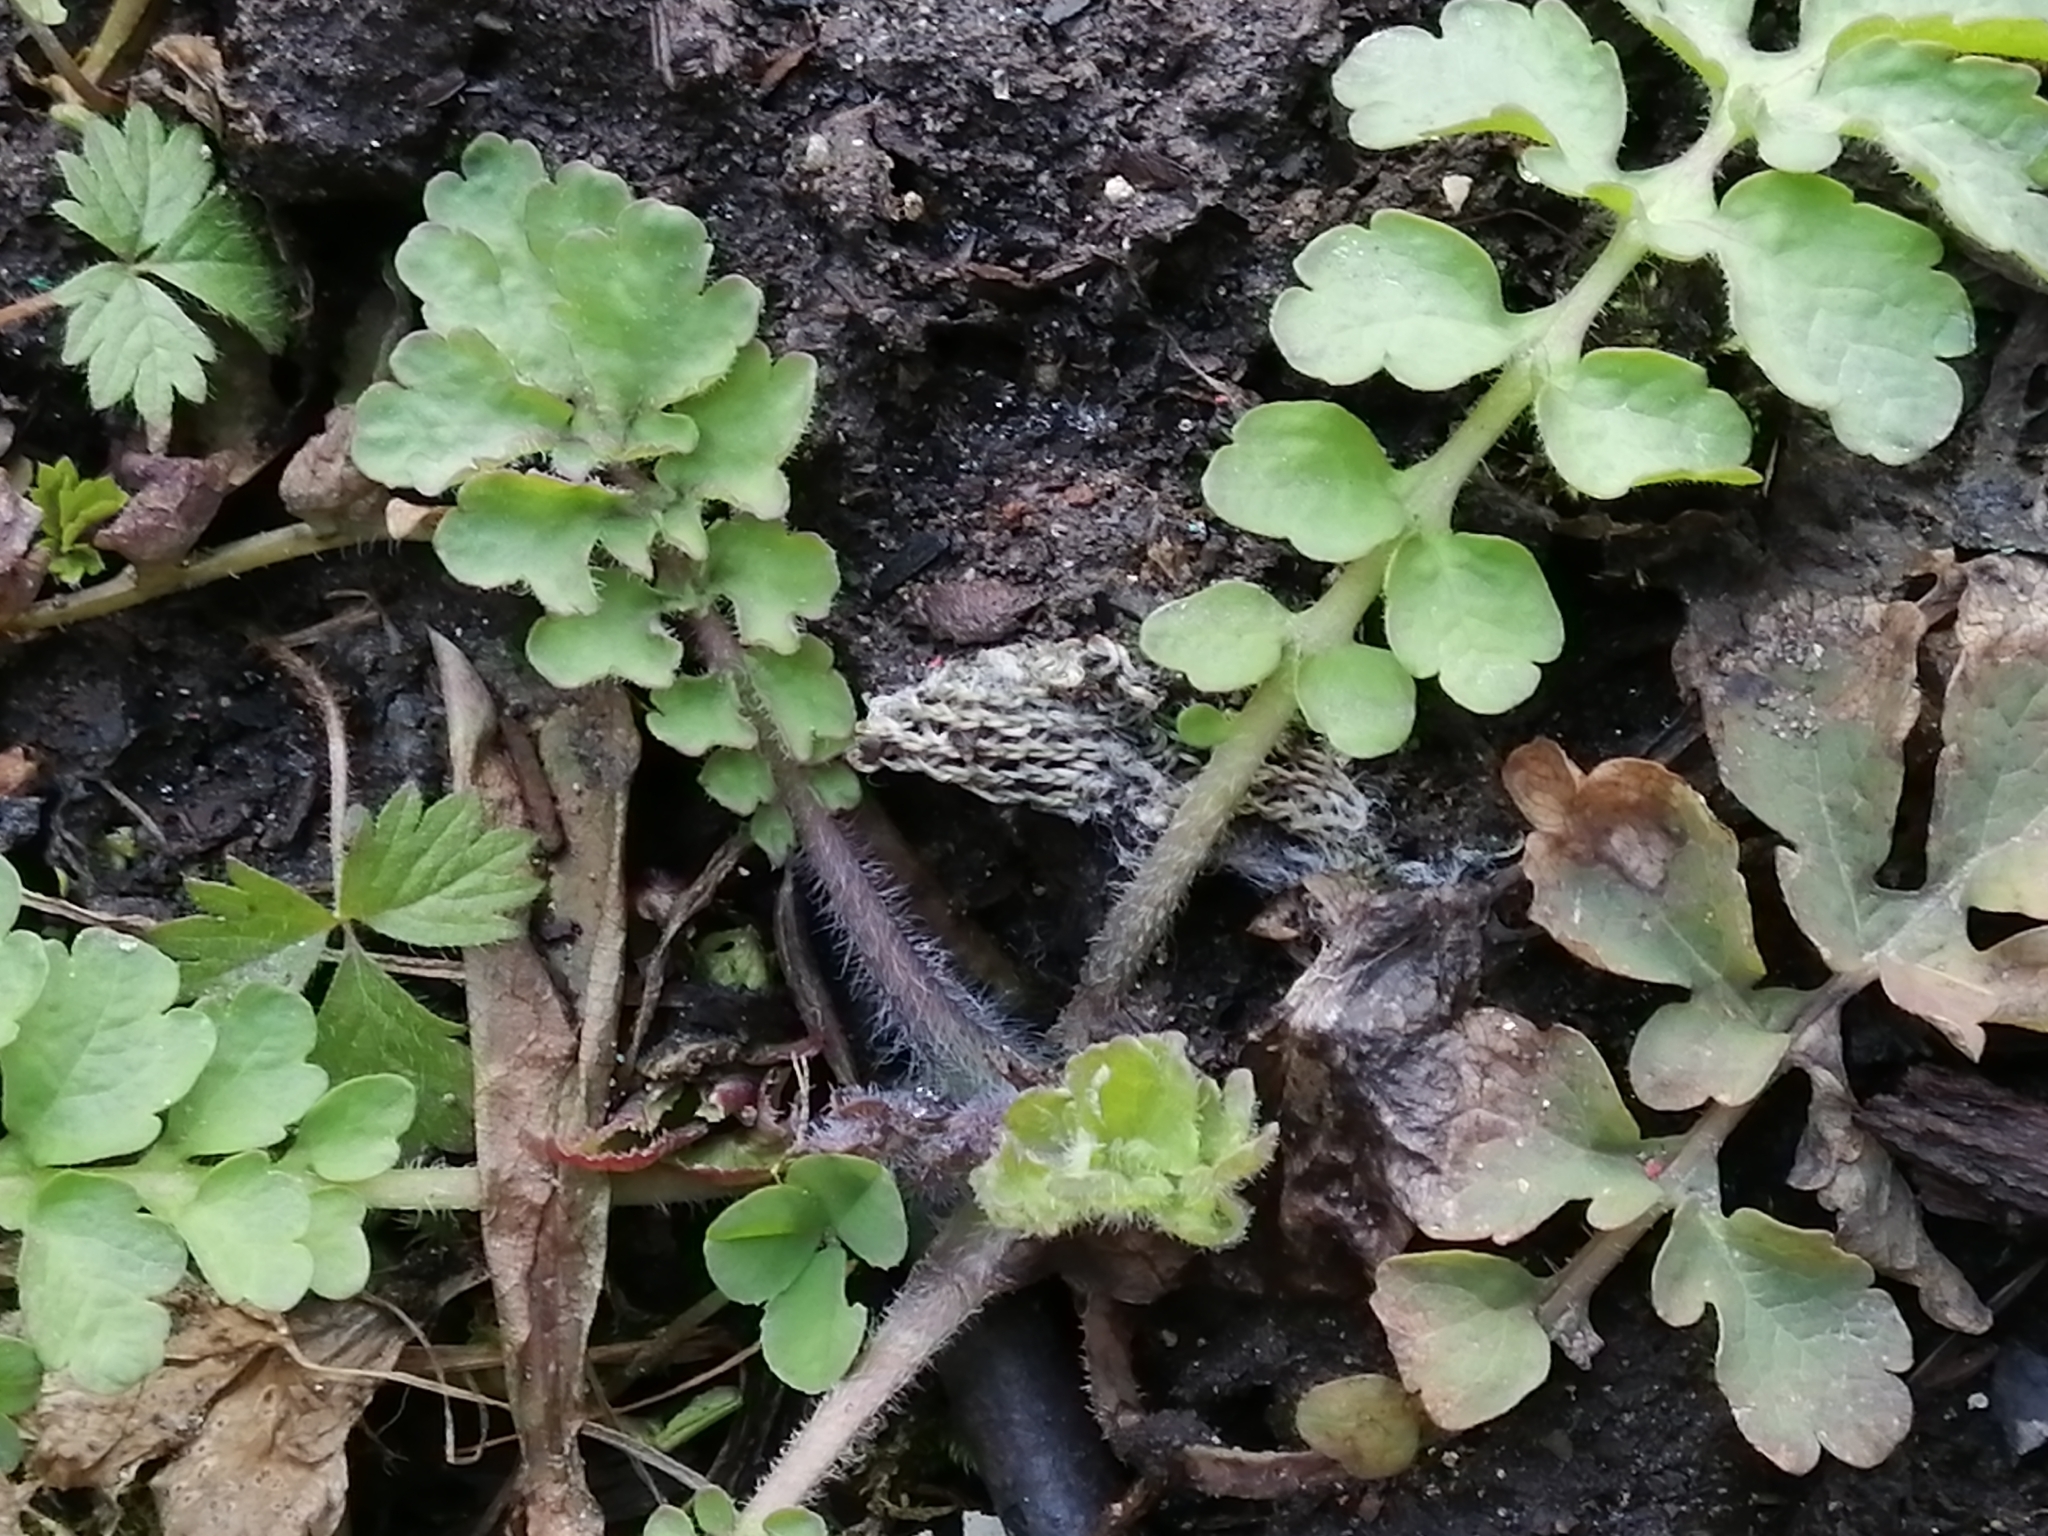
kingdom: Plantae
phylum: Tracheophyta
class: Magnoliopsida
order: Ranunculales
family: Papaveraceae
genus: Chelidonium
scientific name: Chelidonium majus
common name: Greater celandine
